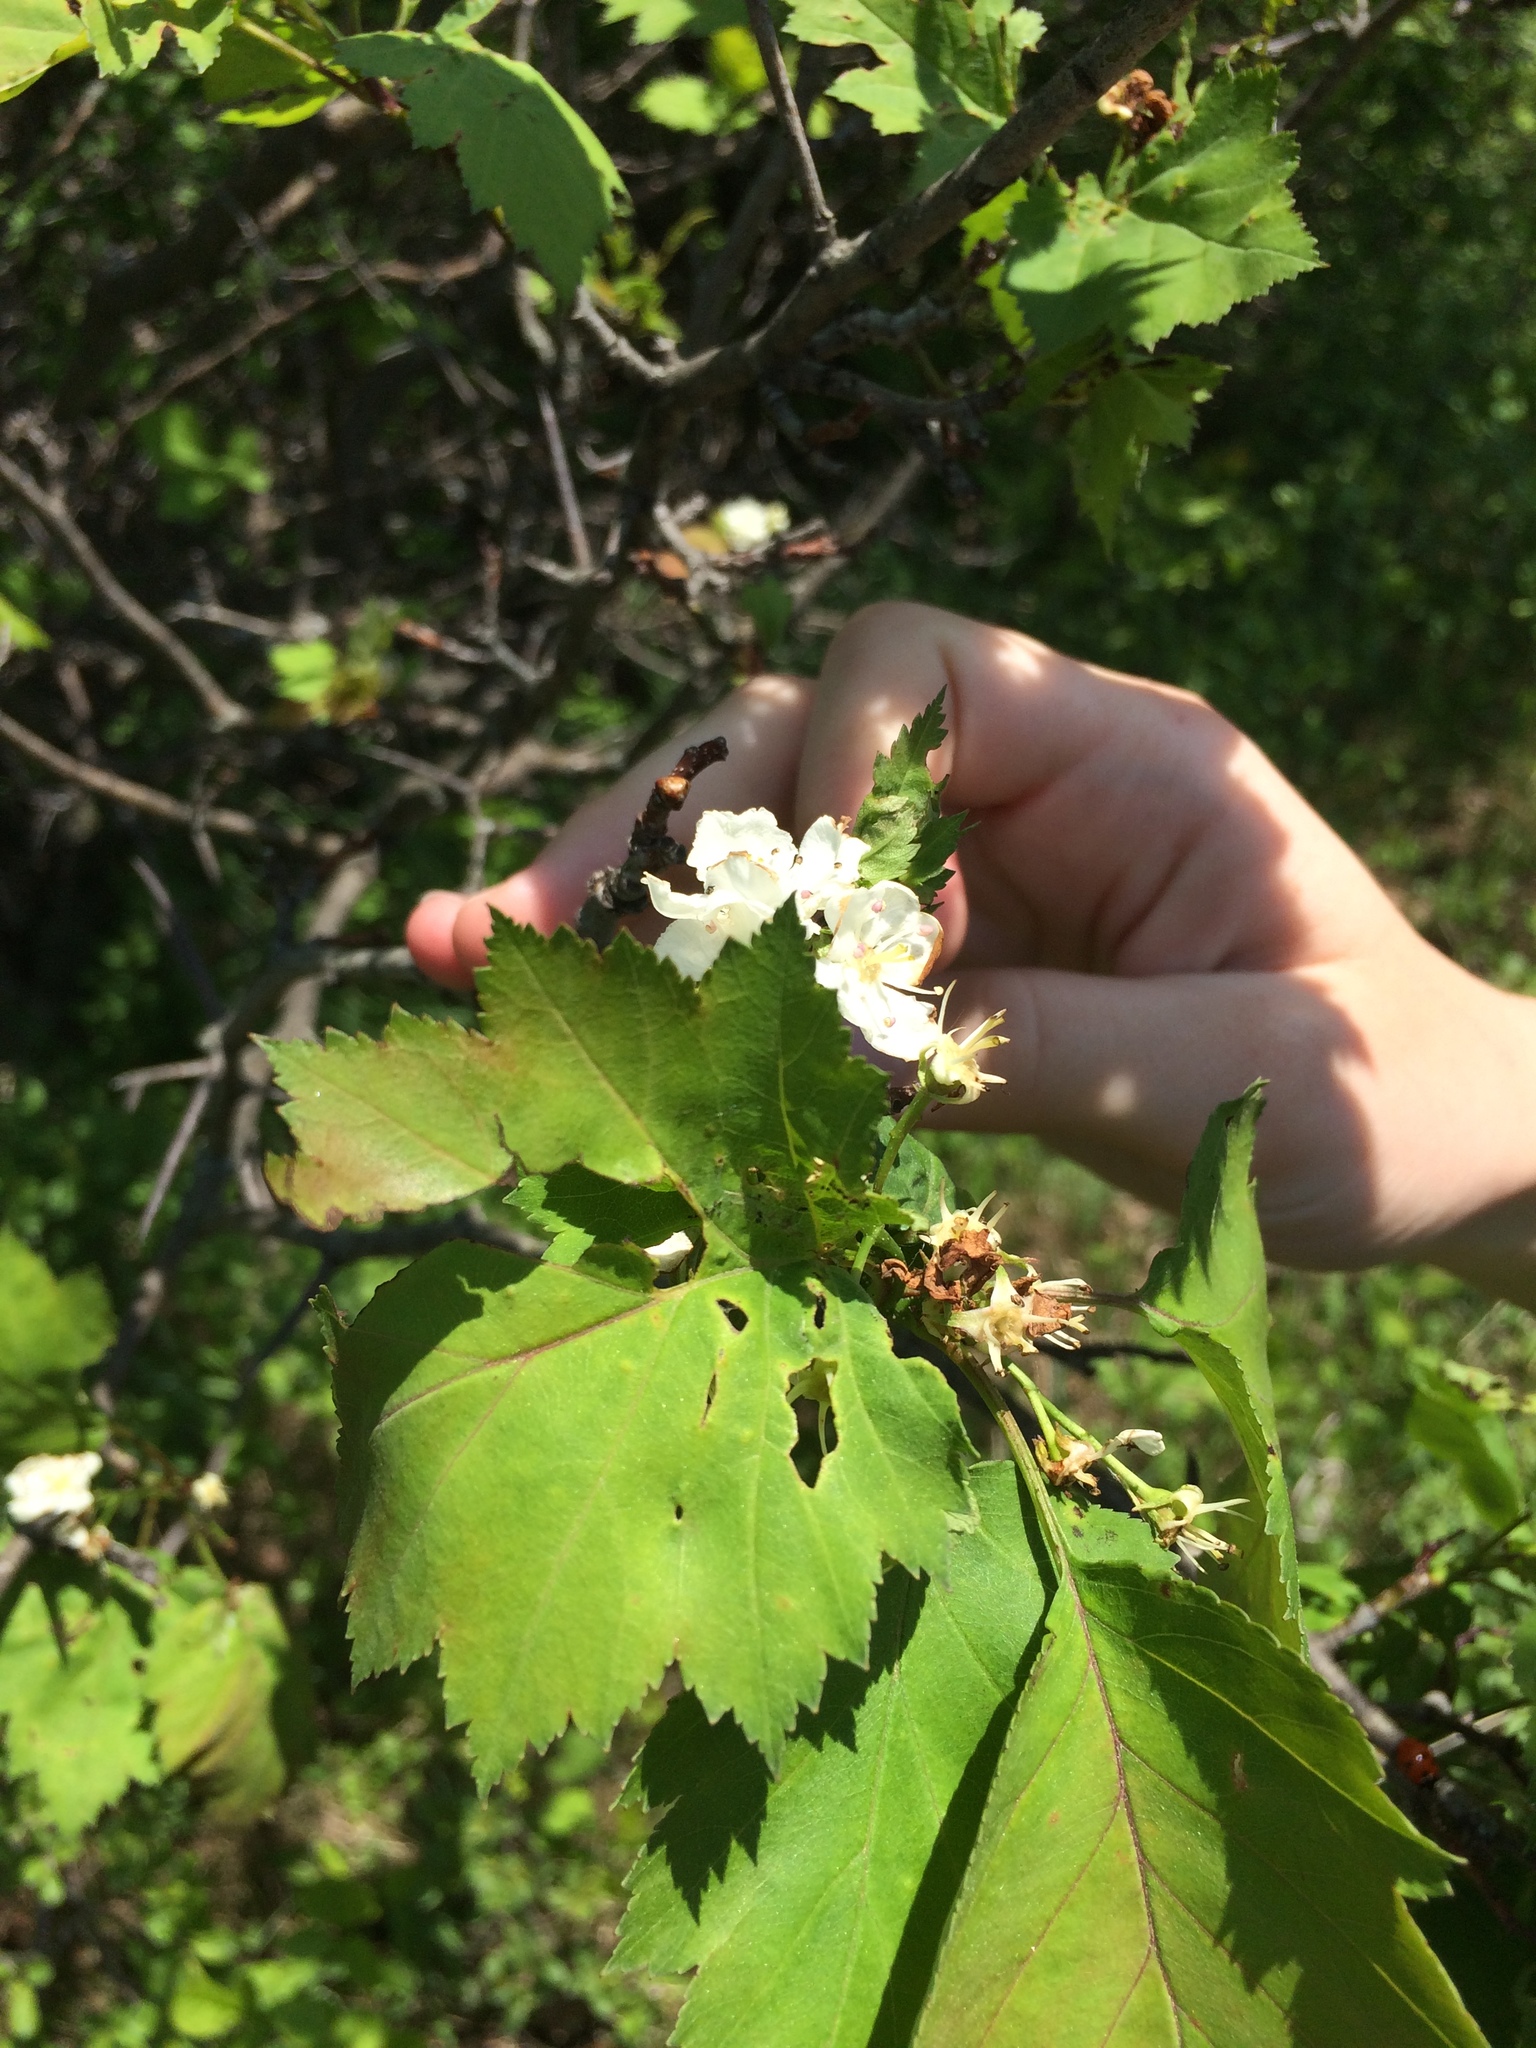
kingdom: Plantae
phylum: Tracheophyta
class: Magnoliopsida
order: Rosales
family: Rosaceae
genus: Crataegus
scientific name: Crataegus fluviatilis
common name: Fort sheridan hawthorn
